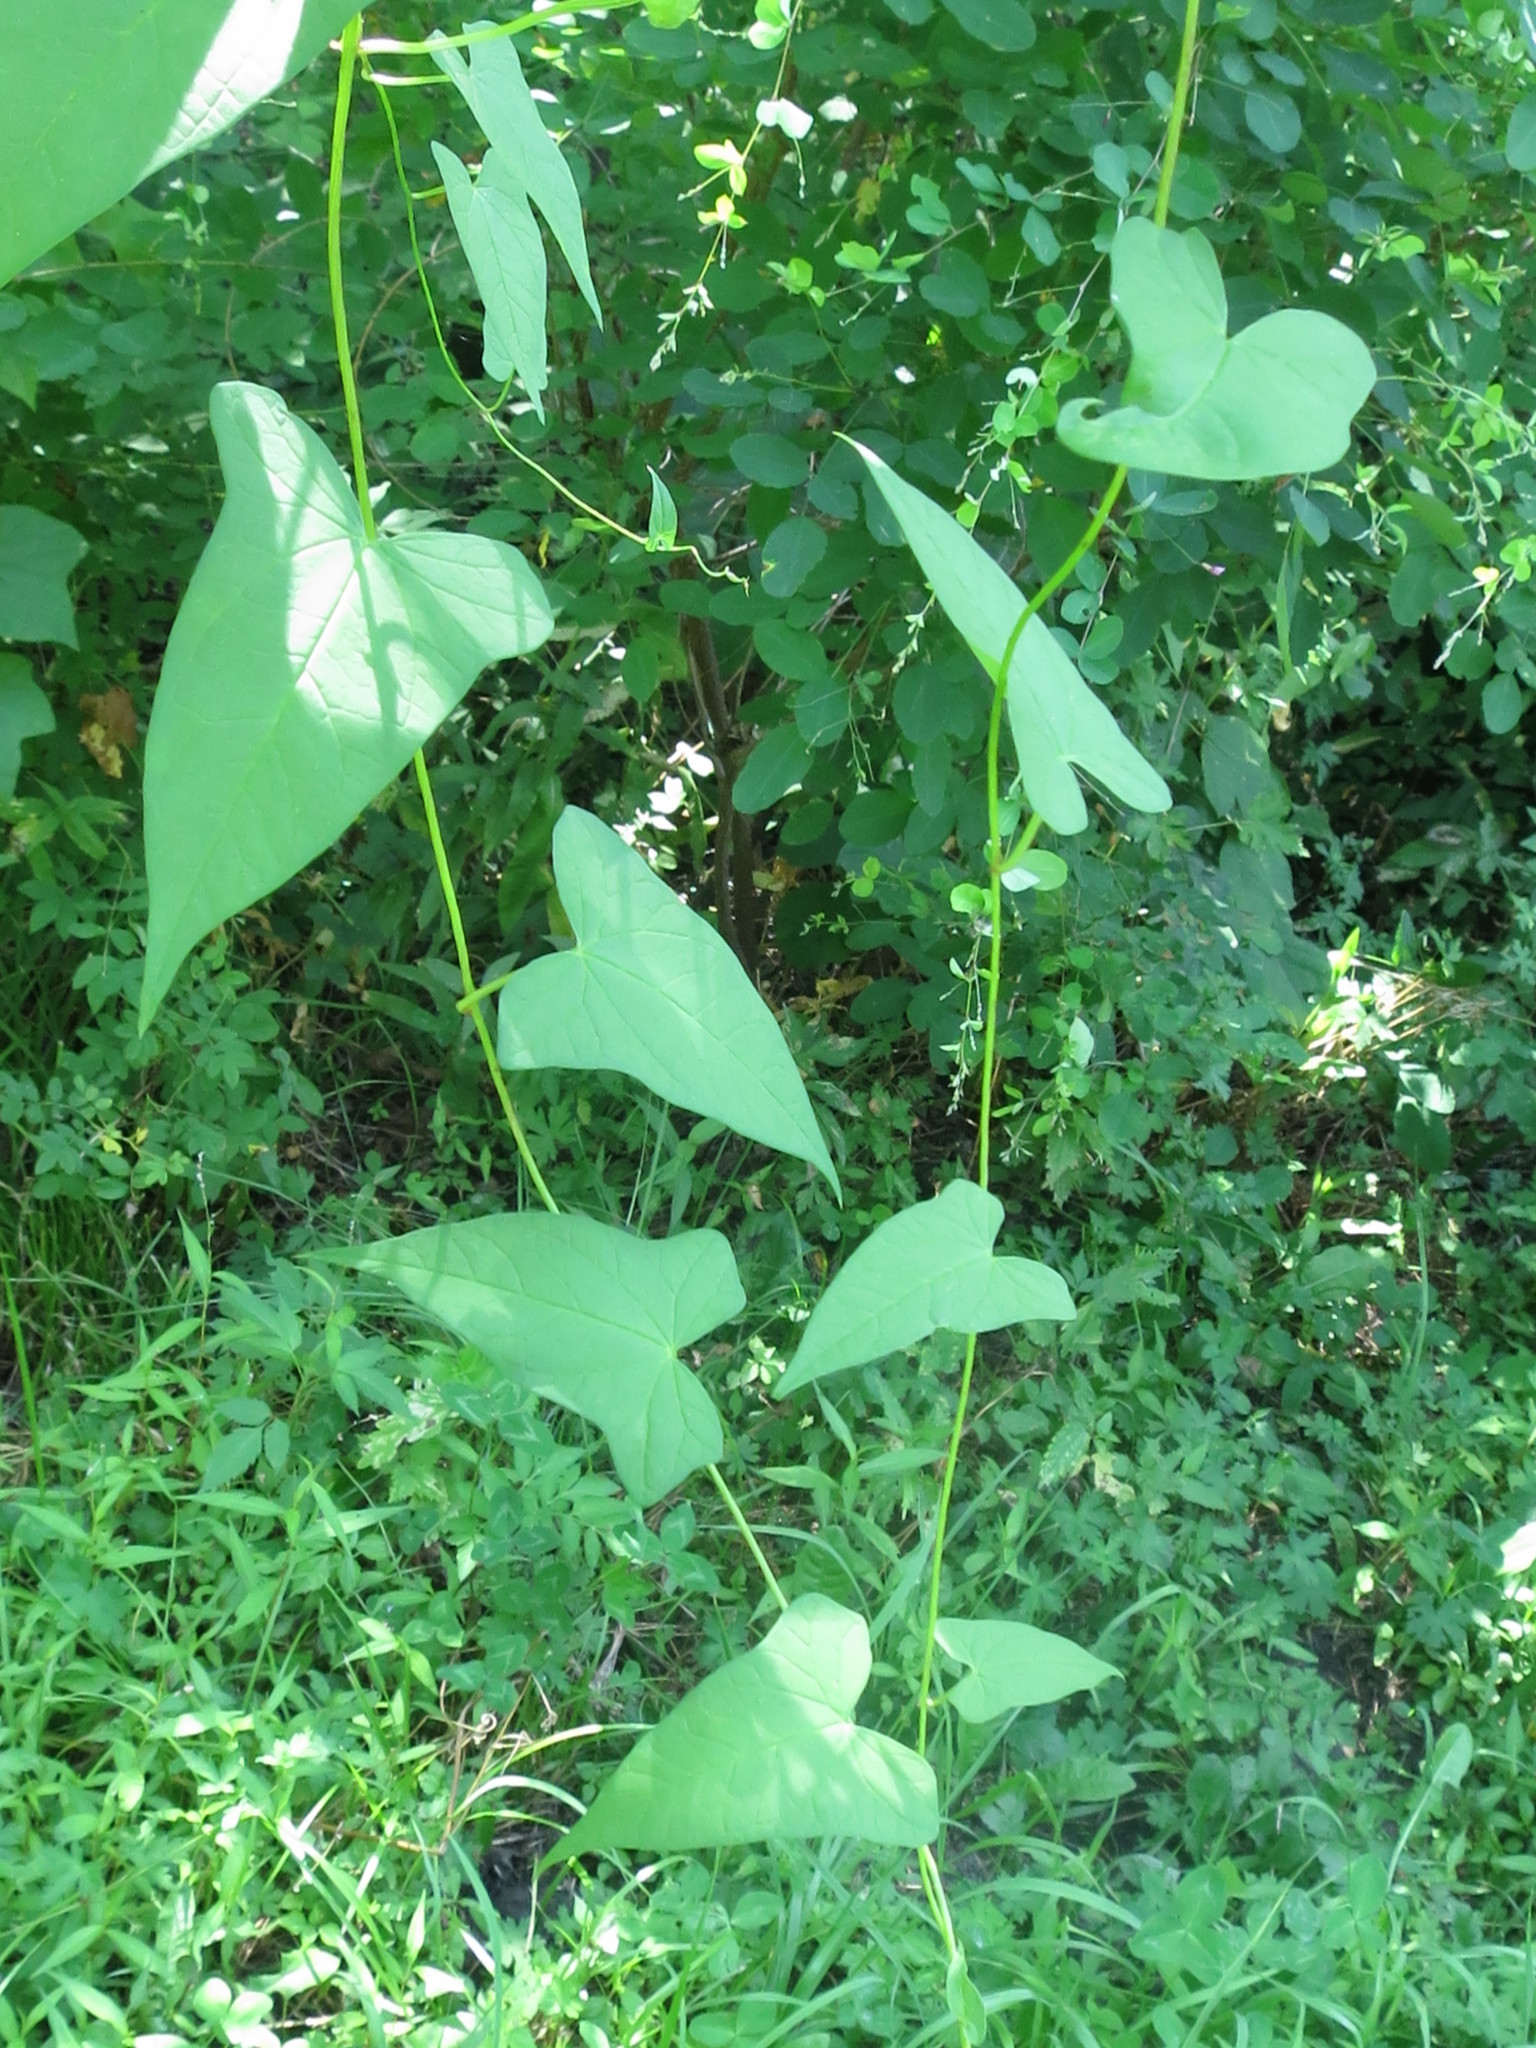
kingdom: Plantae
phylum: Tracheophyta
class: Magnoliopsida
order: Solanales
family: Convolvulaceae
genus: Calystegia
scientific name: Calystegia sepium
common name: Hedge bindweed
